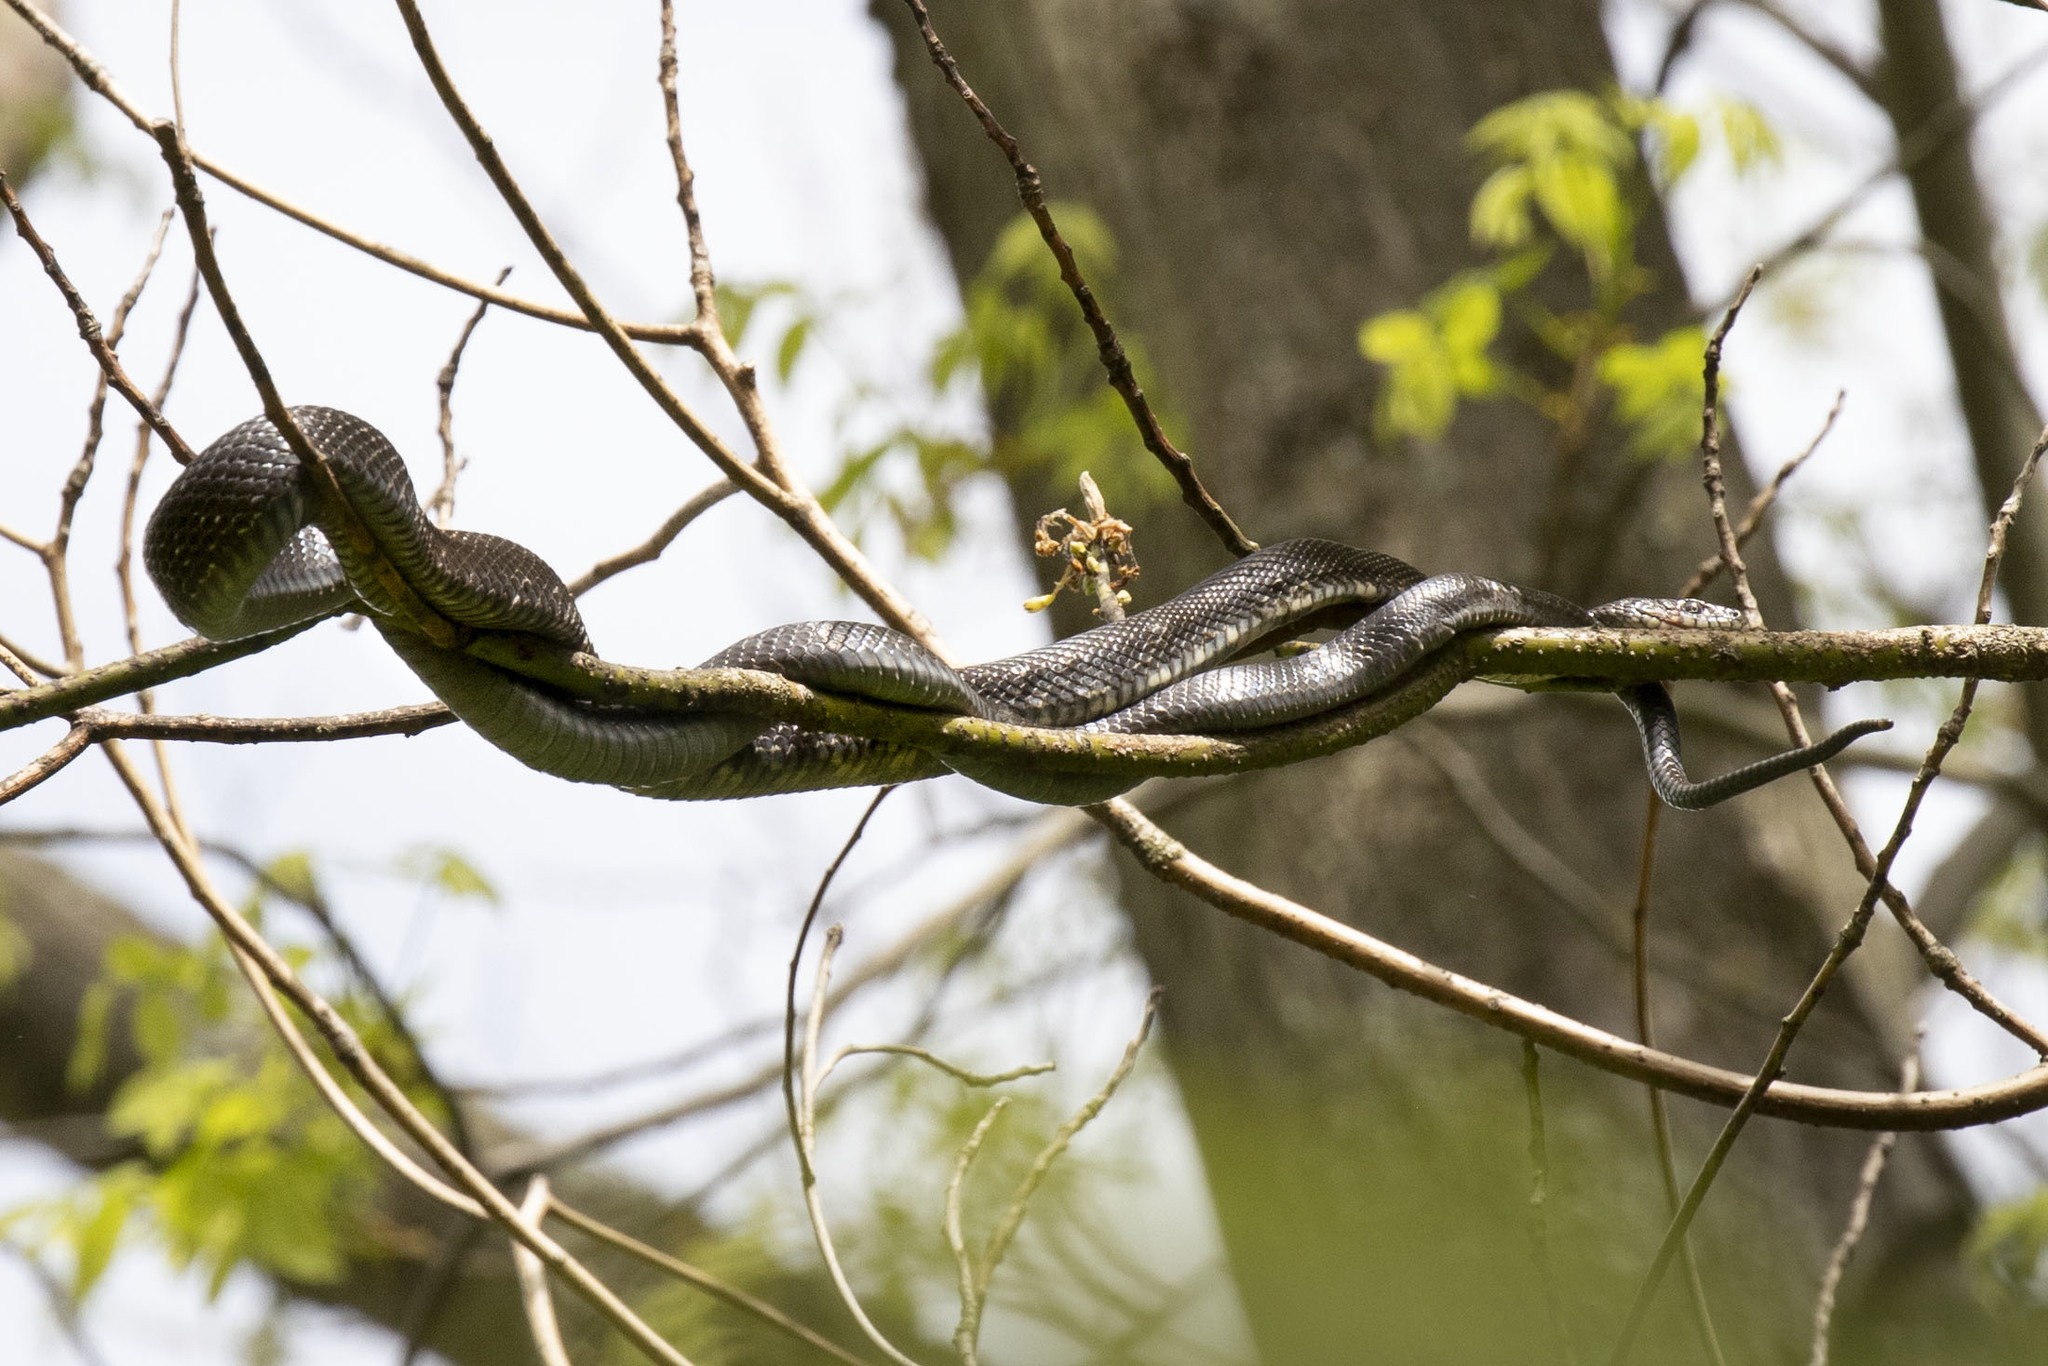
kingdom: Animalia
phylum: Chordata
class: Squamata
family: Colubridae
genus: Pantherophis
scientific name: Pantherophis alleghaniensis
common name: Eastern rat snake
